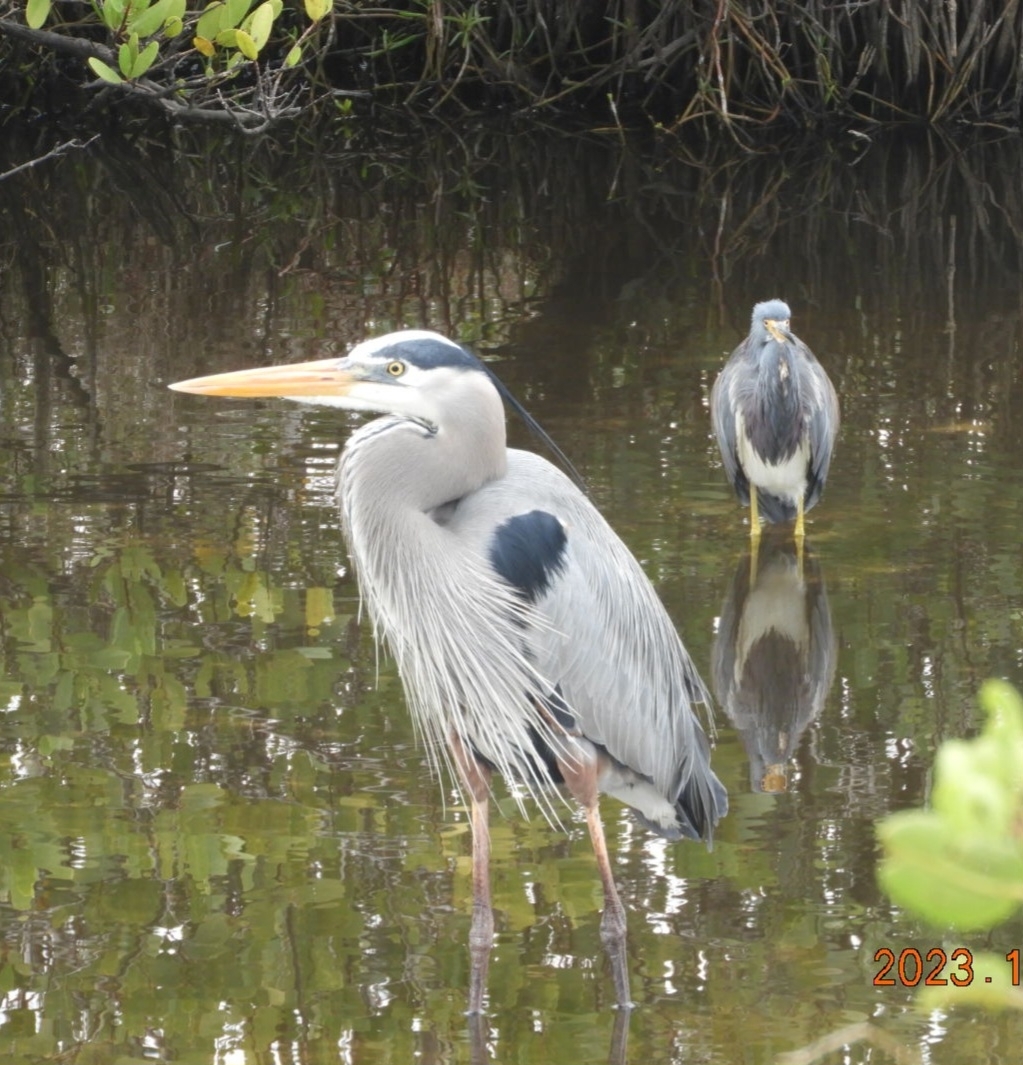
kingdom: Animalia
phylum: Chordata
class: Aves
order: Pelecaniformes
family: Ardeidae
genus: Ardea
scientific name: Ardea herodias
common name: Great blue heron
